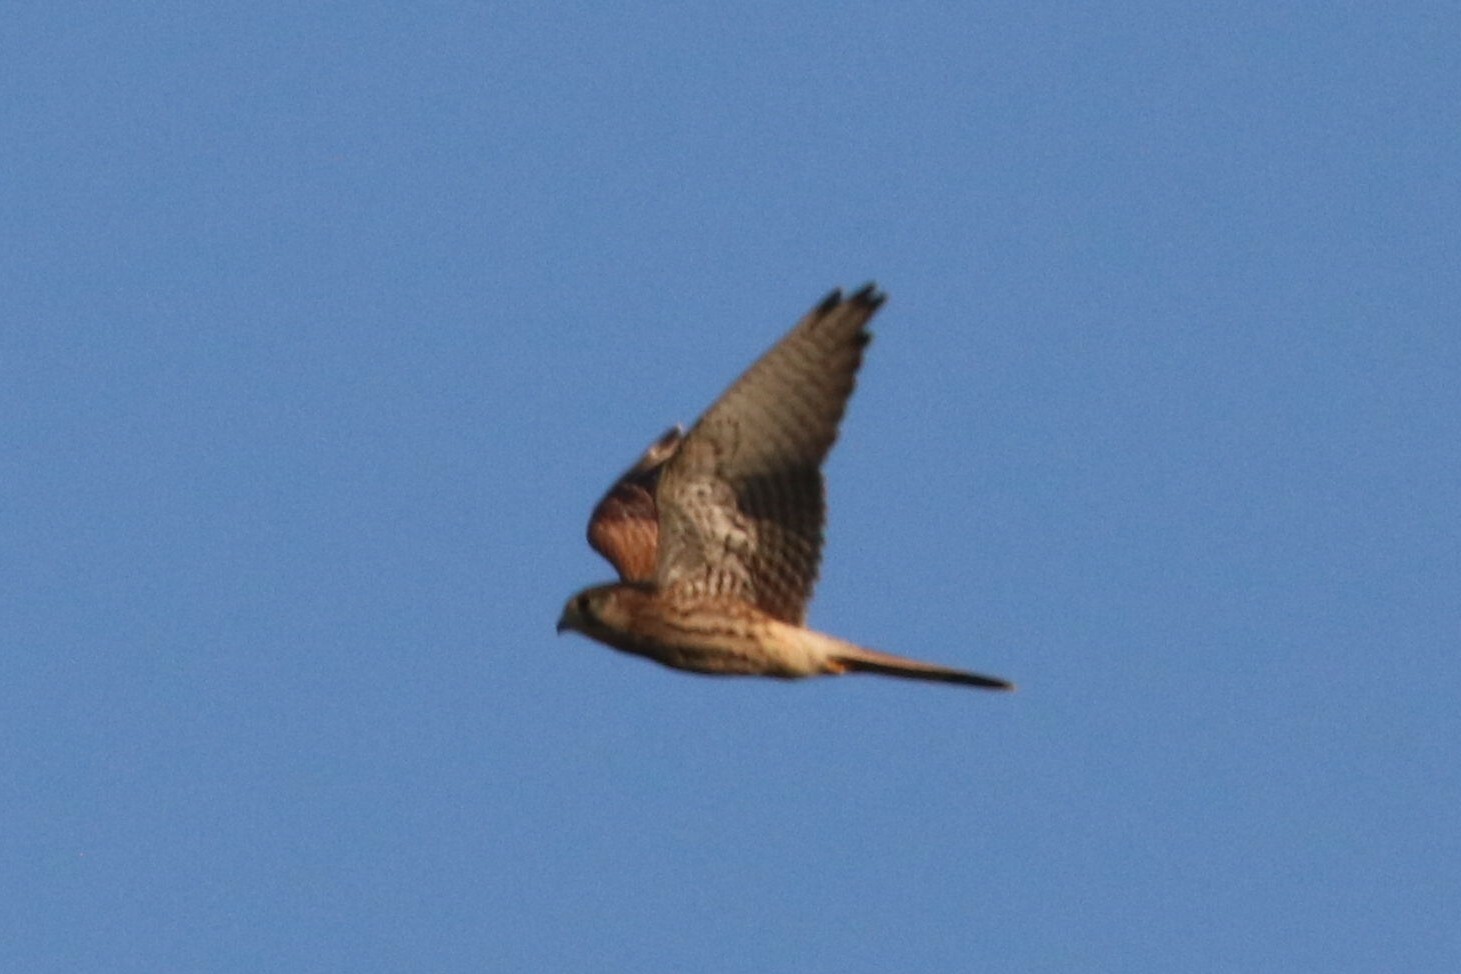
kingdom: Animalia
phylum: Chordata
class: Aves
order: Falconiformes
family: Falconidae
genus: Falco
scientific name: Falco tinnunculus
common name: Common kestrel
